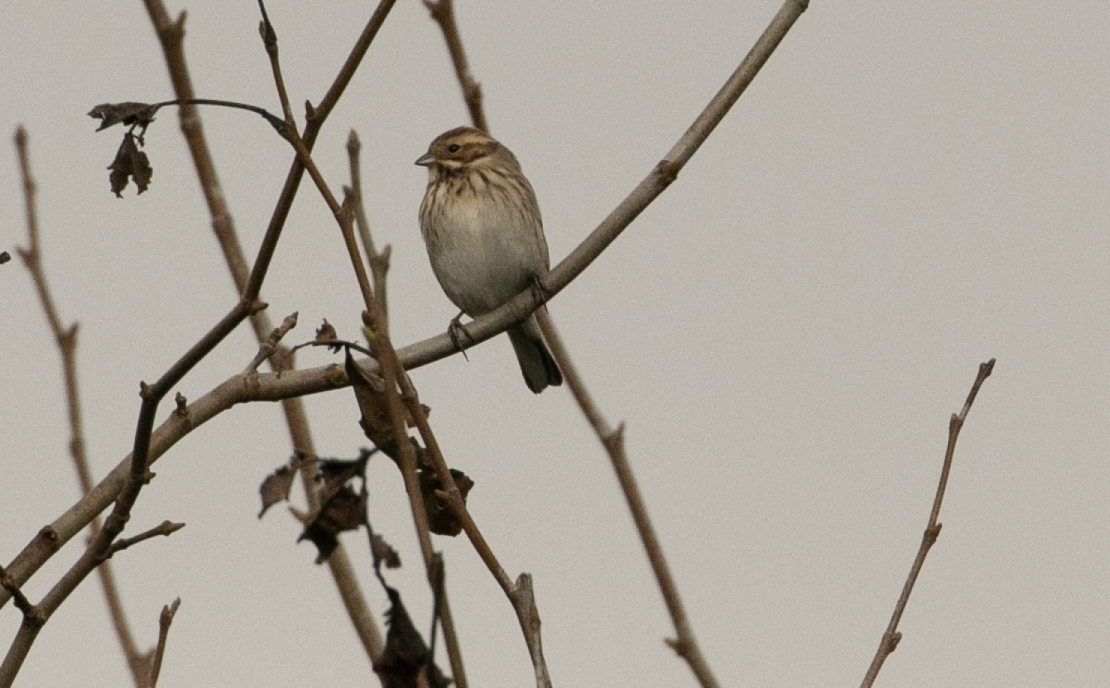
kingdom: Animalia
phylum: Chordata
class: Aves
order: Passeriformes
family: Emberizidae
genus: Emberiza
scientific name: Emberiza schoeniclus
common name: Reed bunting
